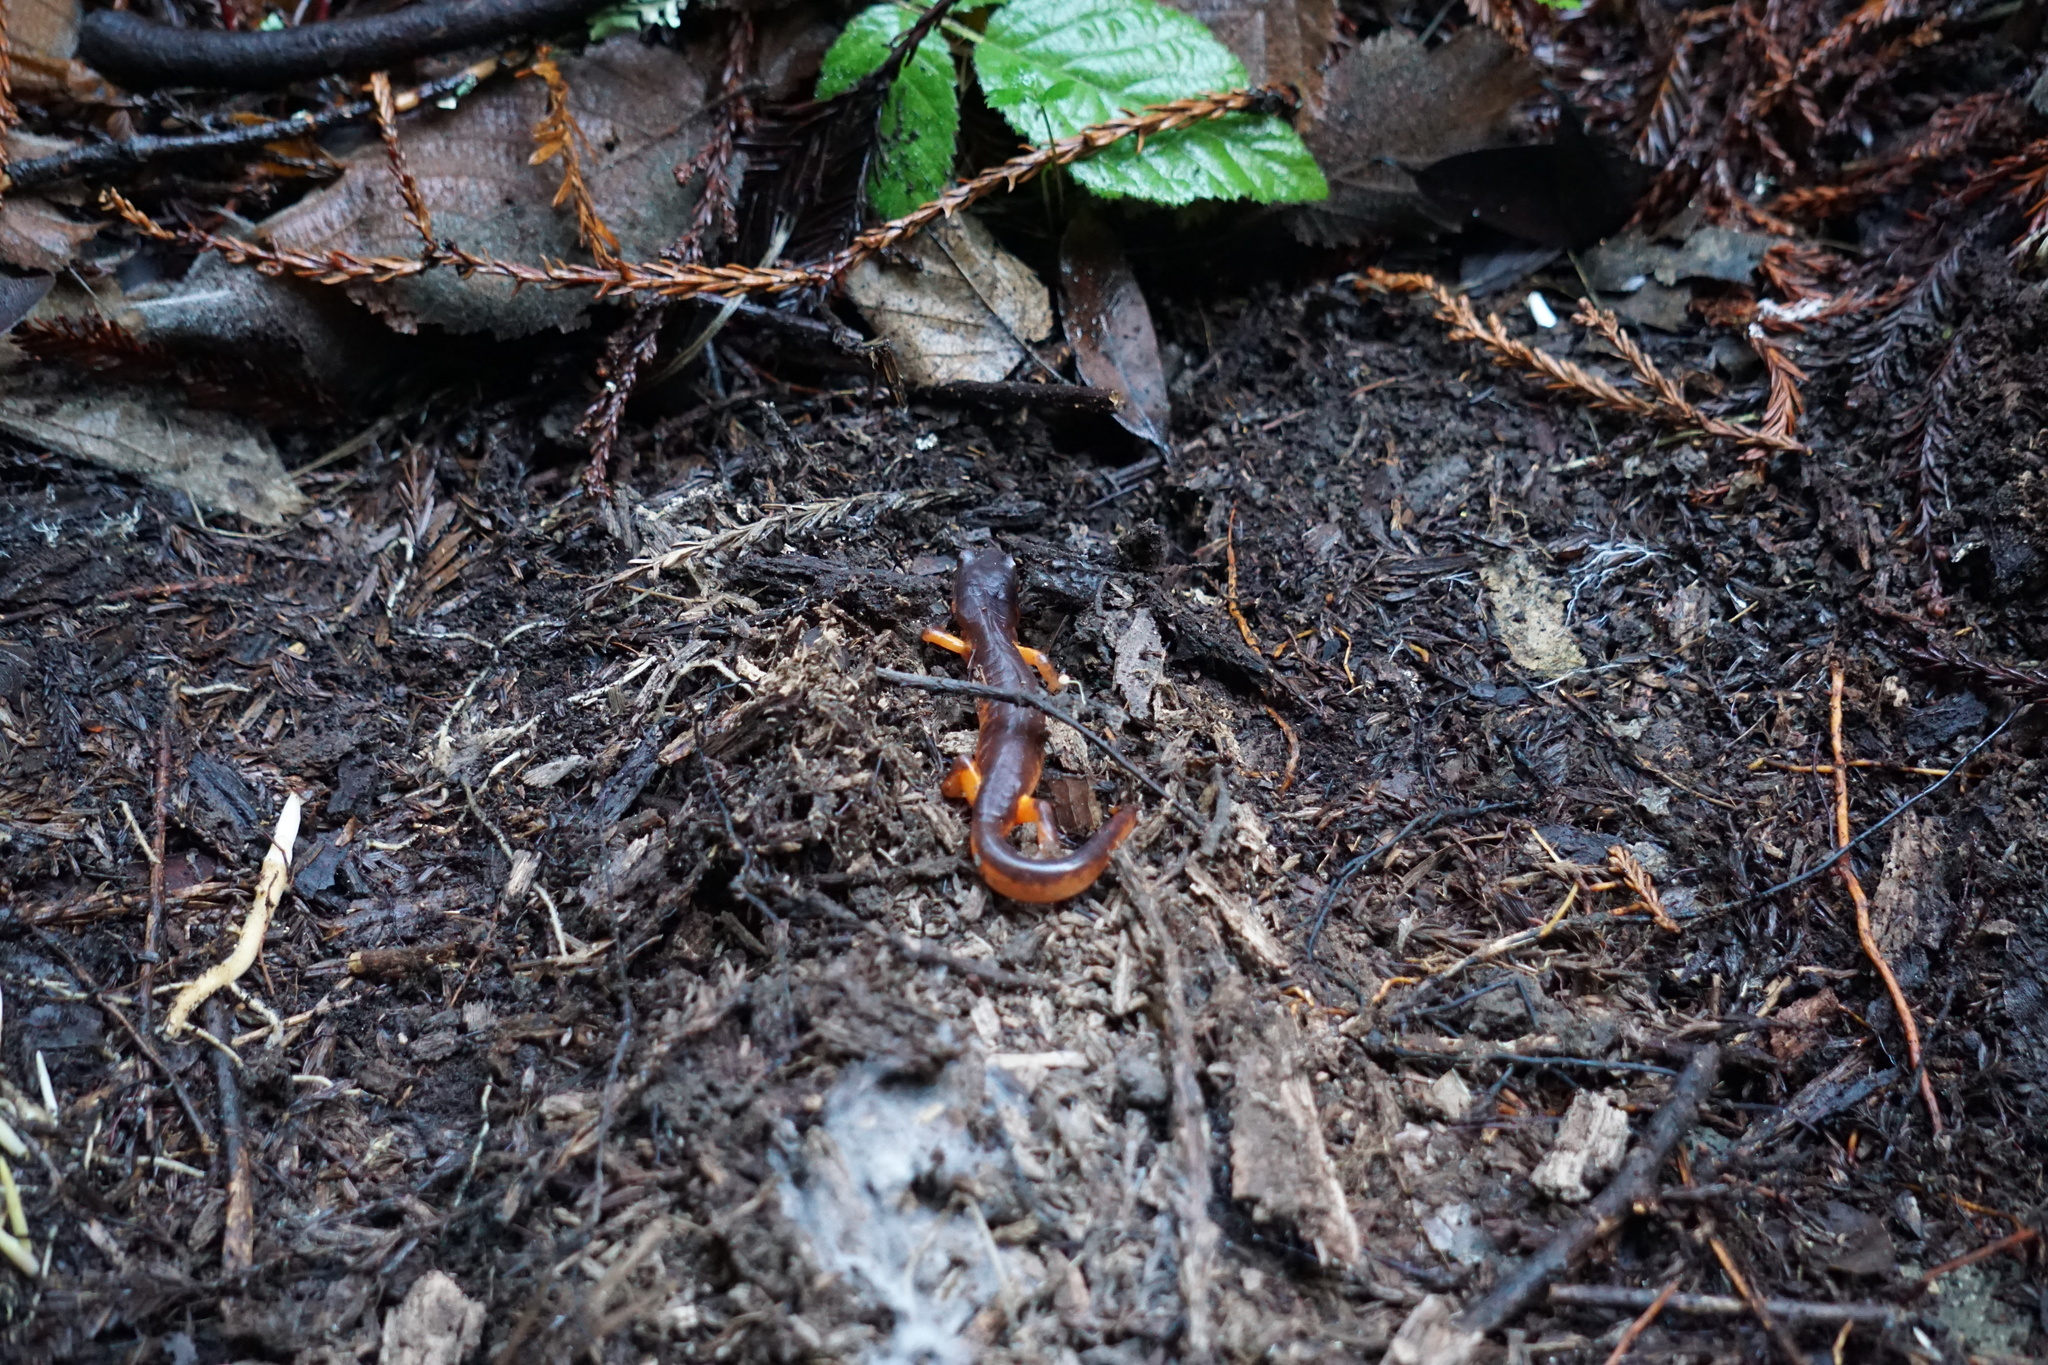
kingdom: Animalia
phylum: Chordata
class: Amphibia
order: Caudata
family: Plethodontidae
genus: Ensatina
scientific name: Ensatina eschscholtzii
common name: Ensatina
